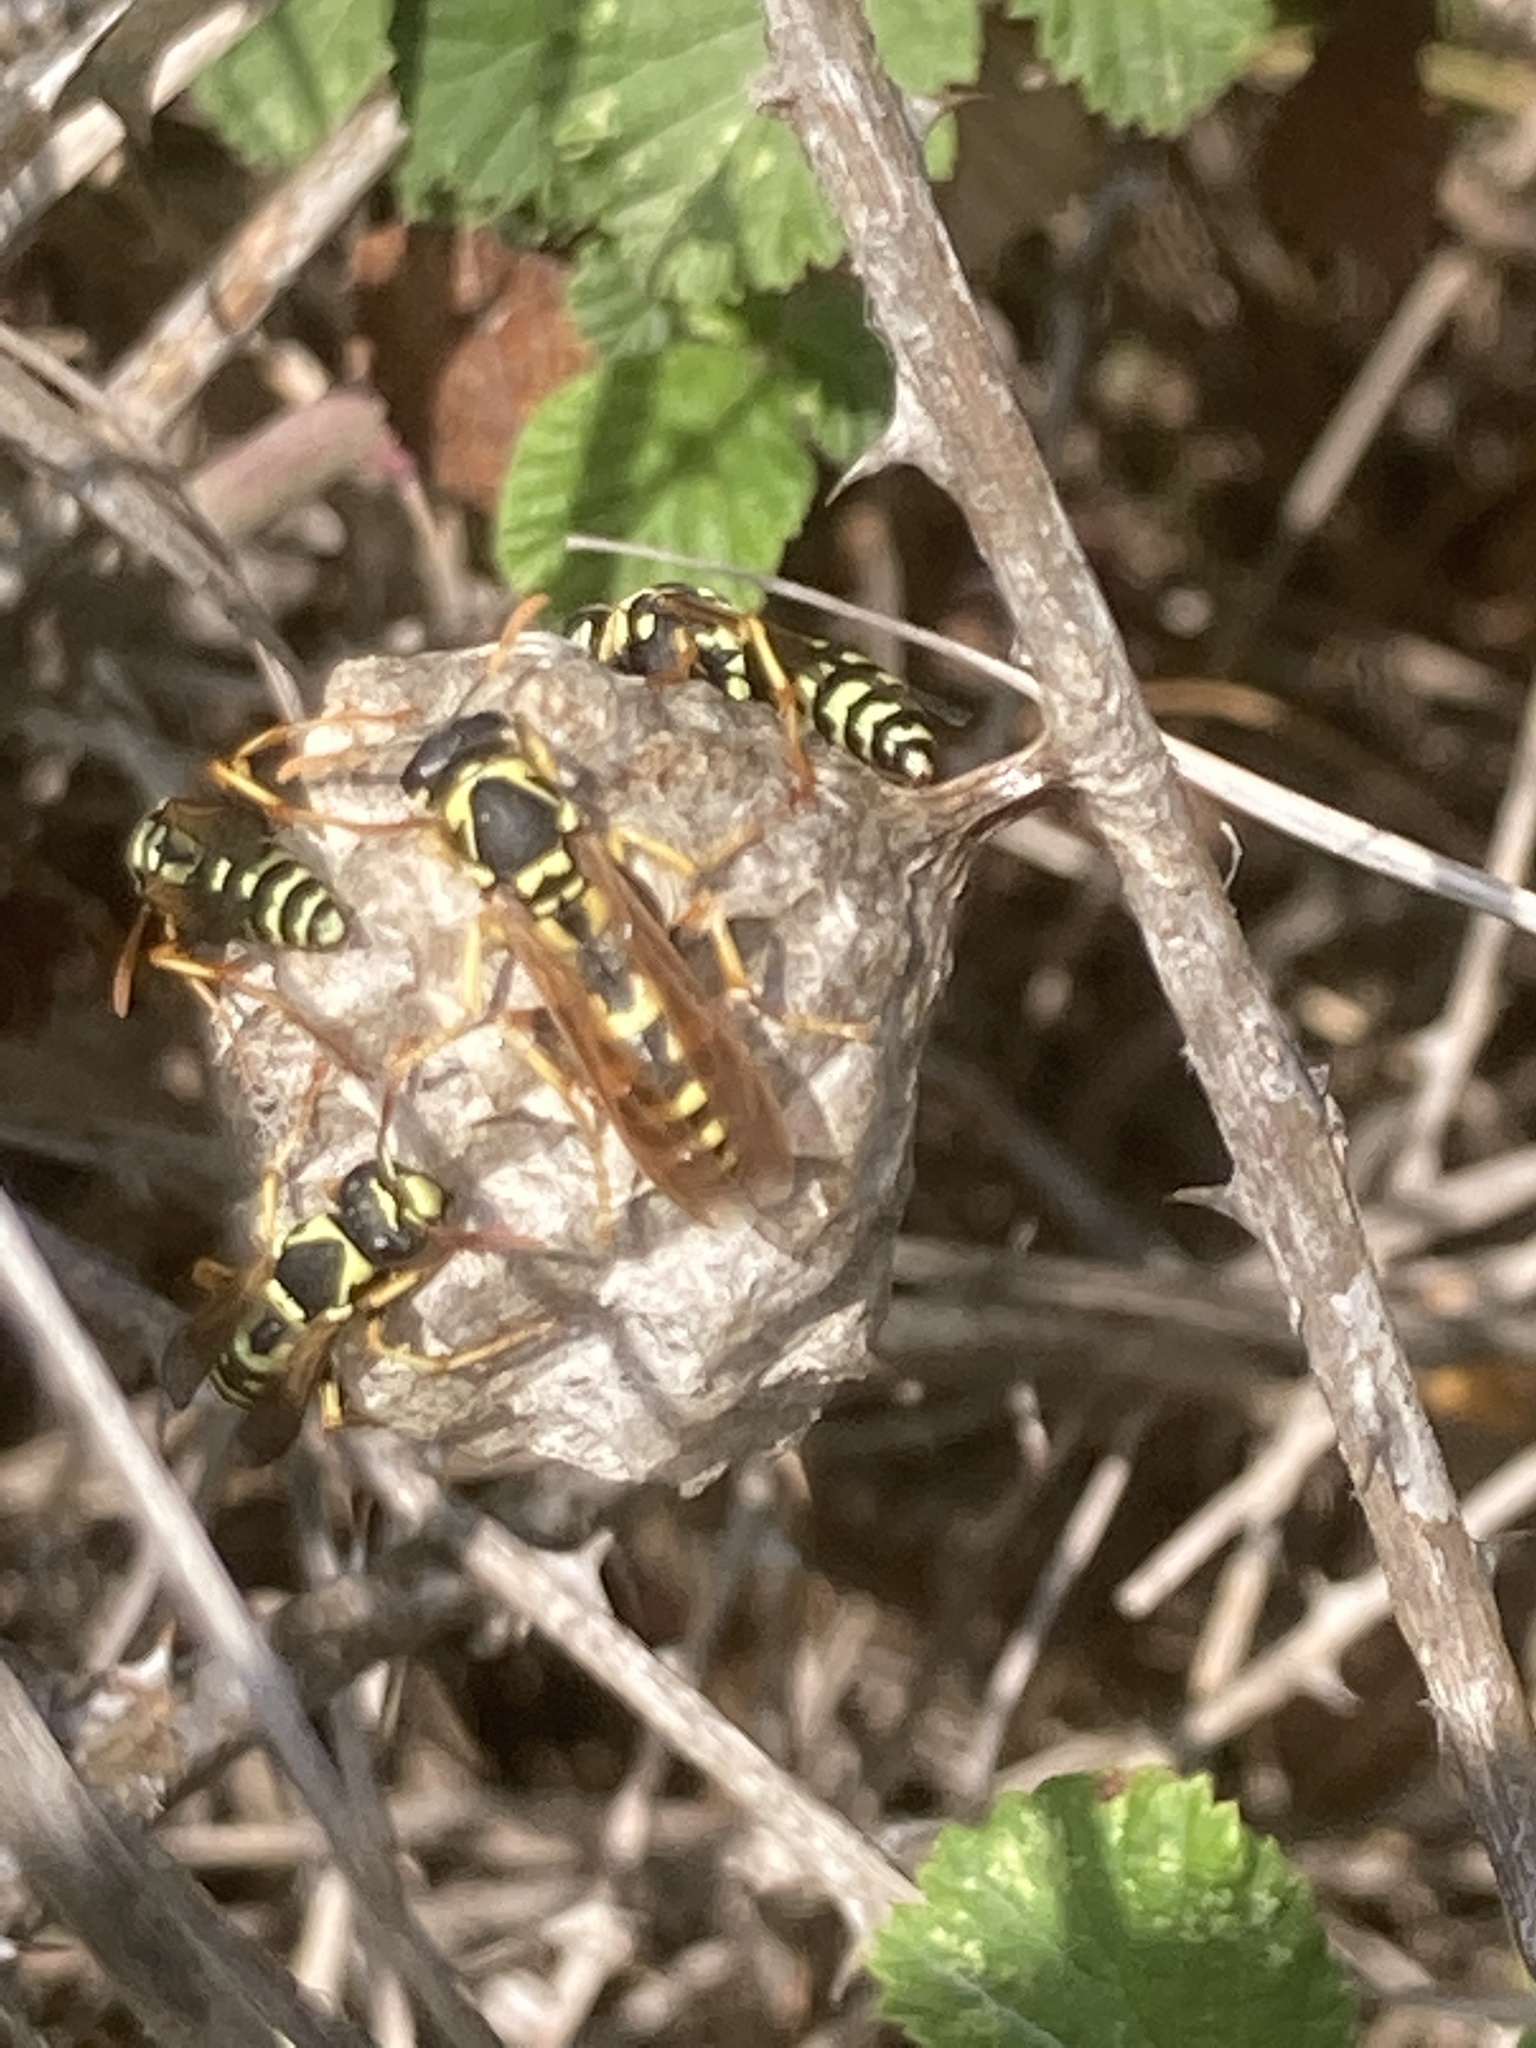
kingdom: Animalia
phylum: Arthropoda
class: Insecta
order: Hymenoptera
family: Eumenidae
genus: Polistes
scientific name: Polistes gallicus
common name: Paper wasp
